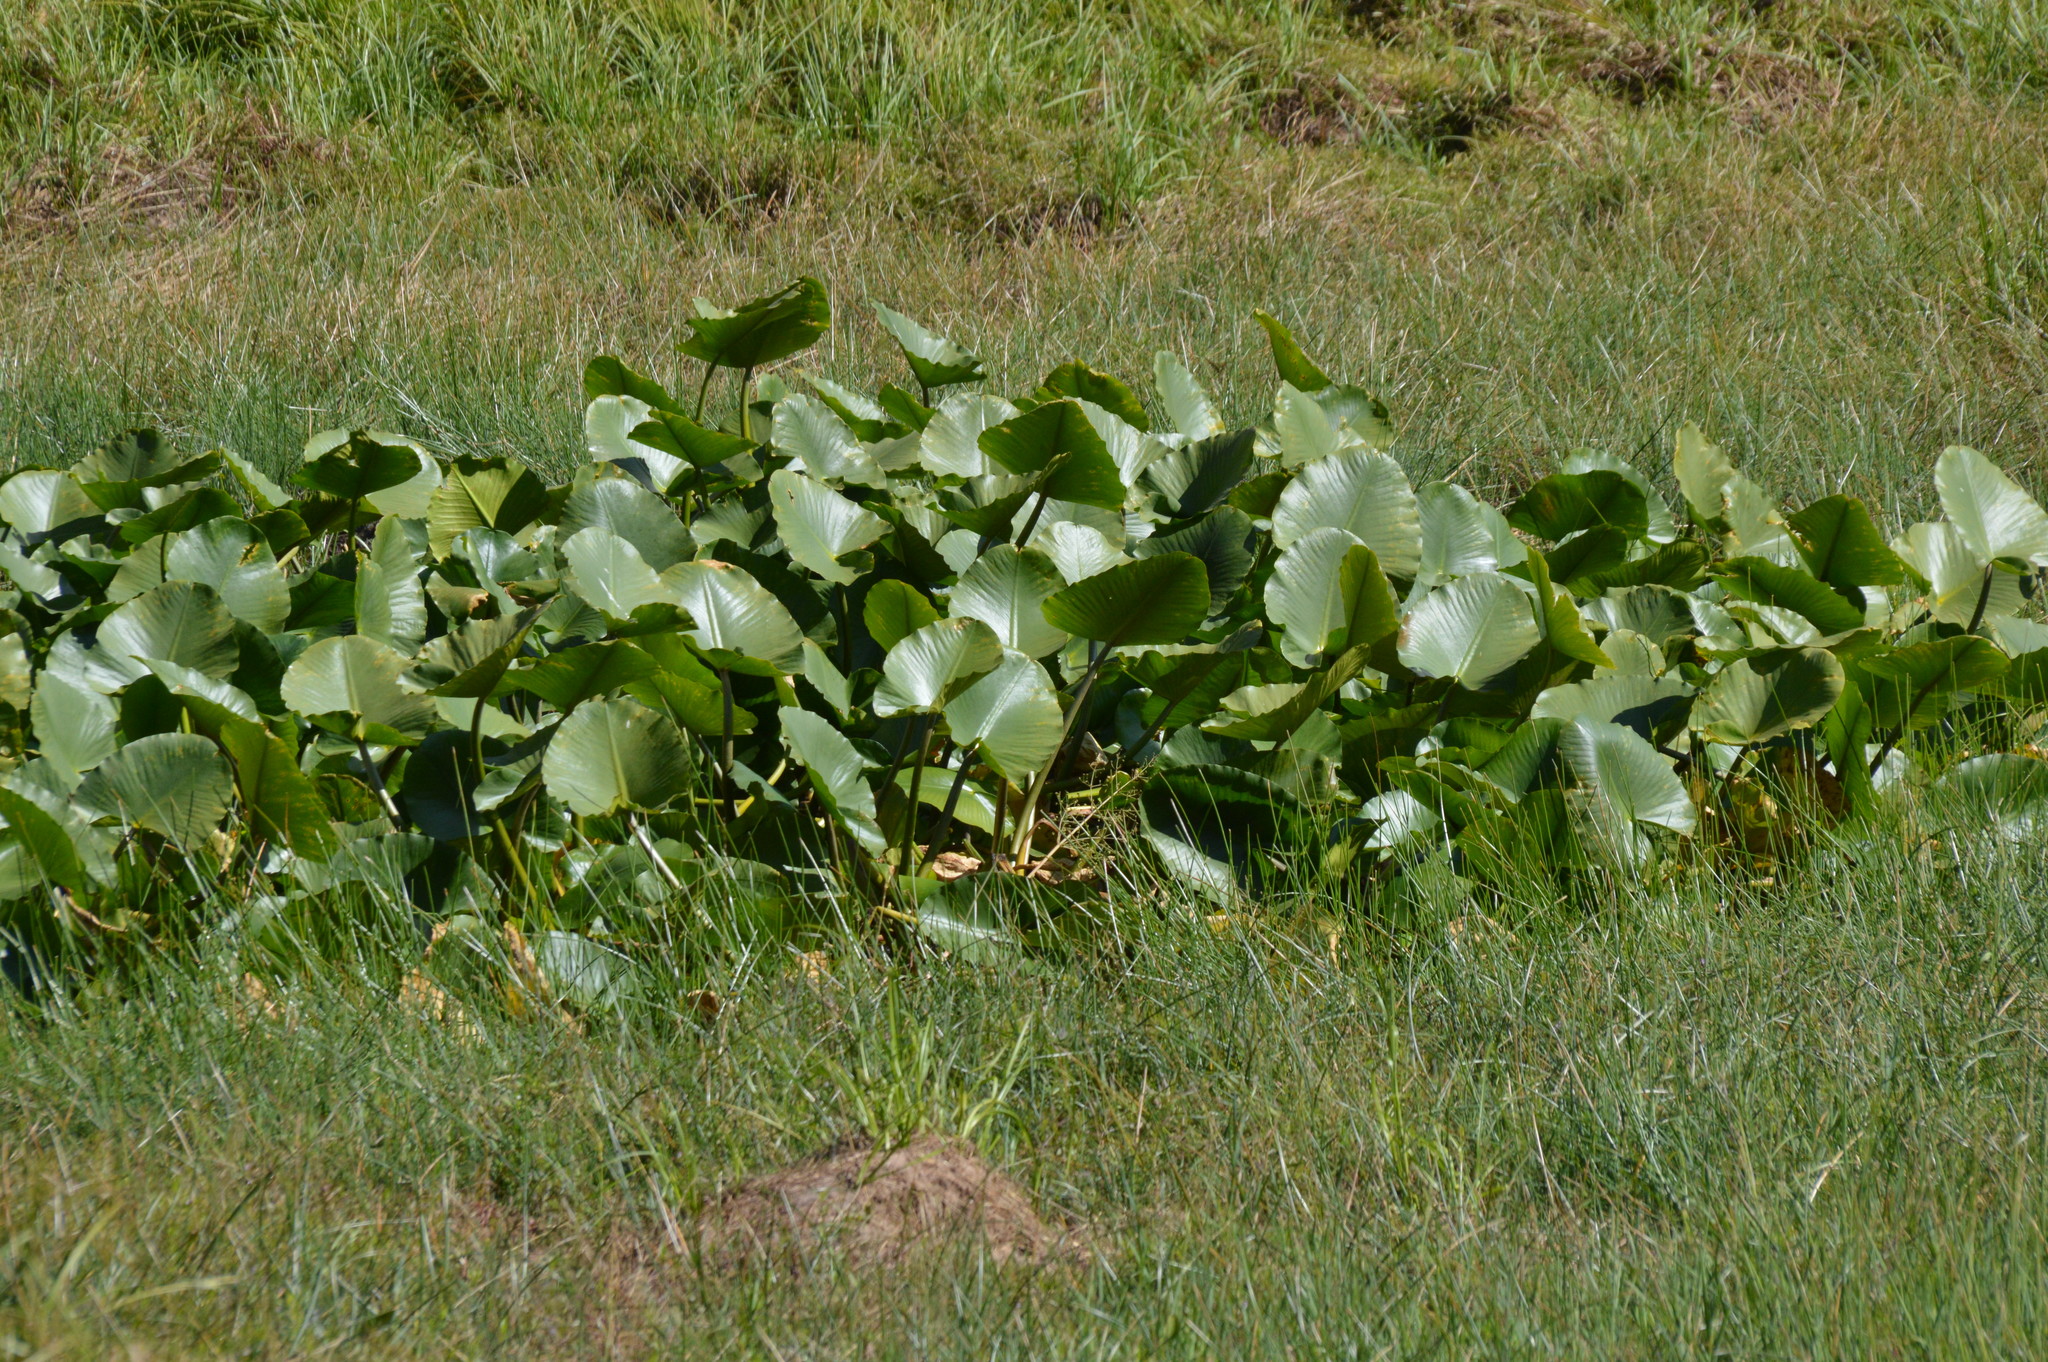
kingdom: Plantae
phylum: Tracheophyta
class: Magnoliopsida
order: Nymphaeales
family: Nymphaeaceae
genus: Nuphar
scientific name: Nuphar polysepala
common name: Rocky mountain cow-lily
